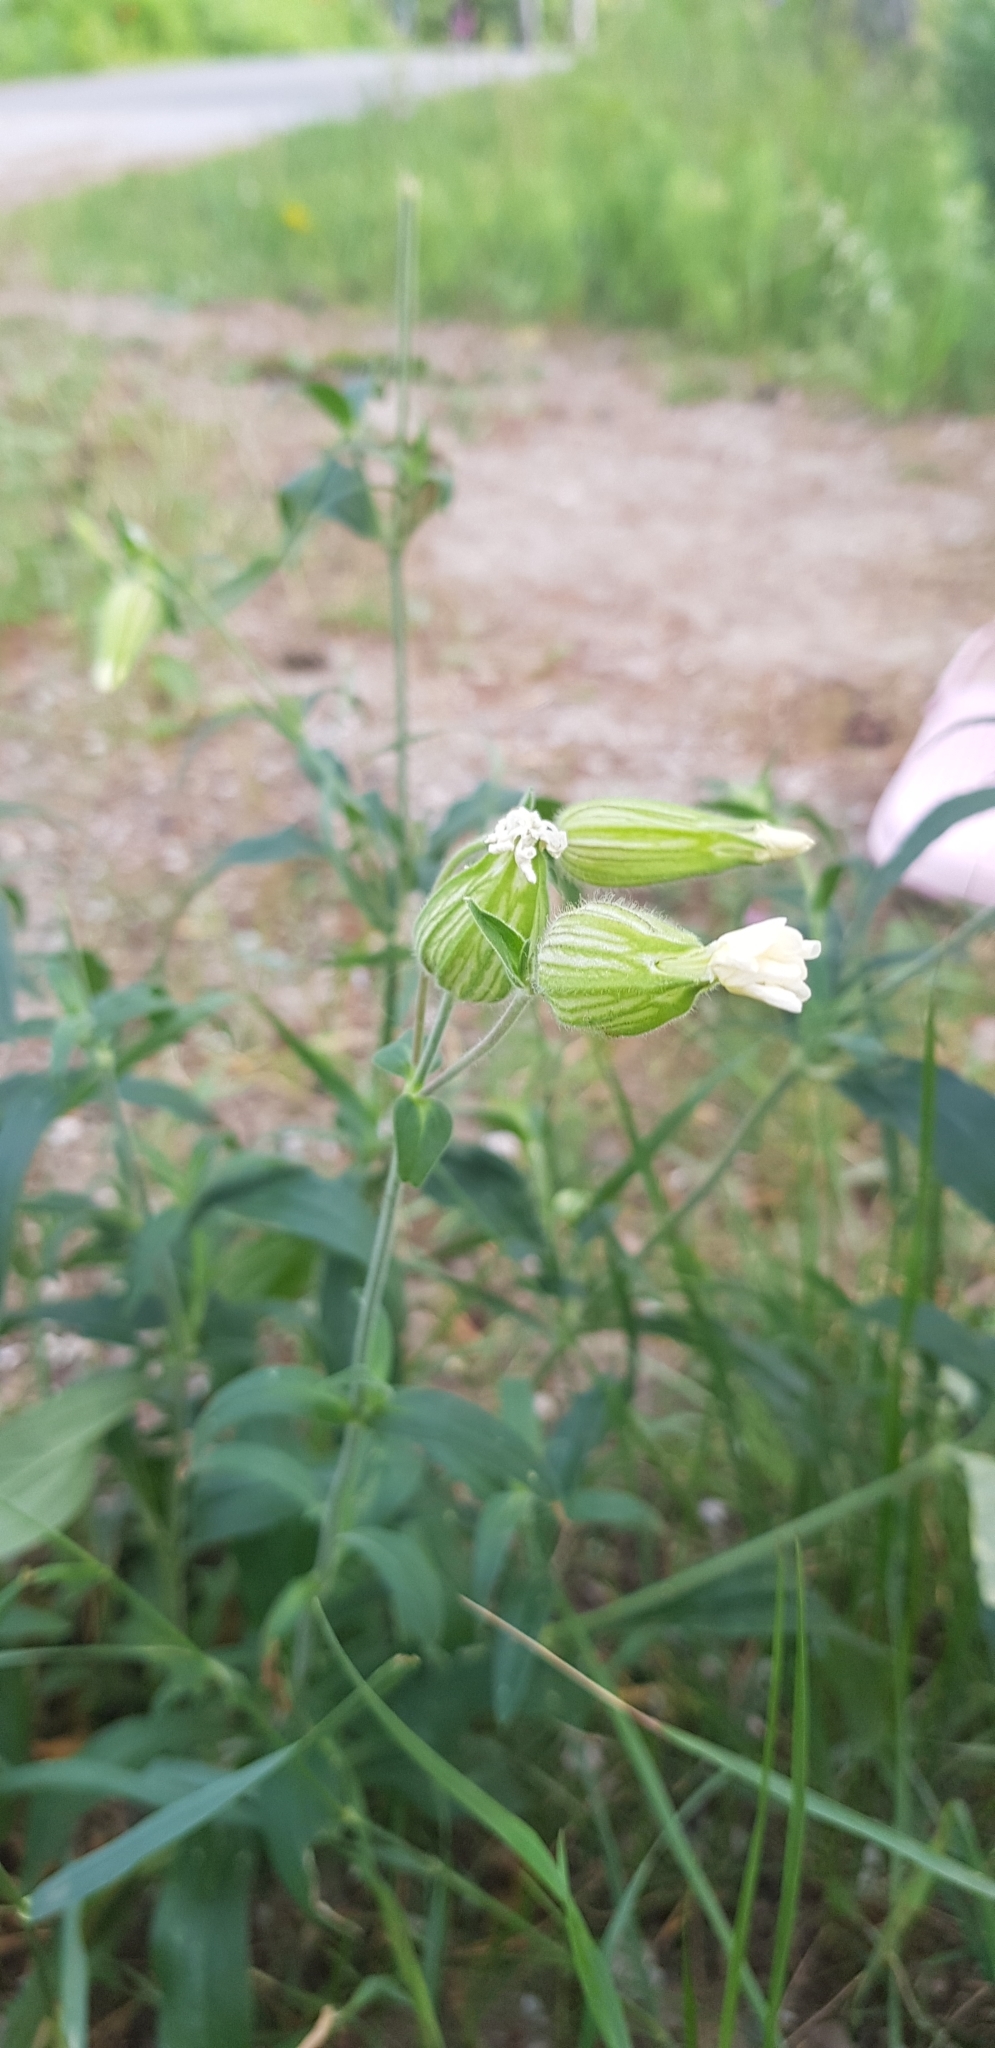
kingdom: Plantae
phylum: Tracheophyta
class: Magnoliopsida
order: Caryophyllales
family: Caryophyllaceae
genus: Silene
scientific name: Silene latifolia
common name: White campion
